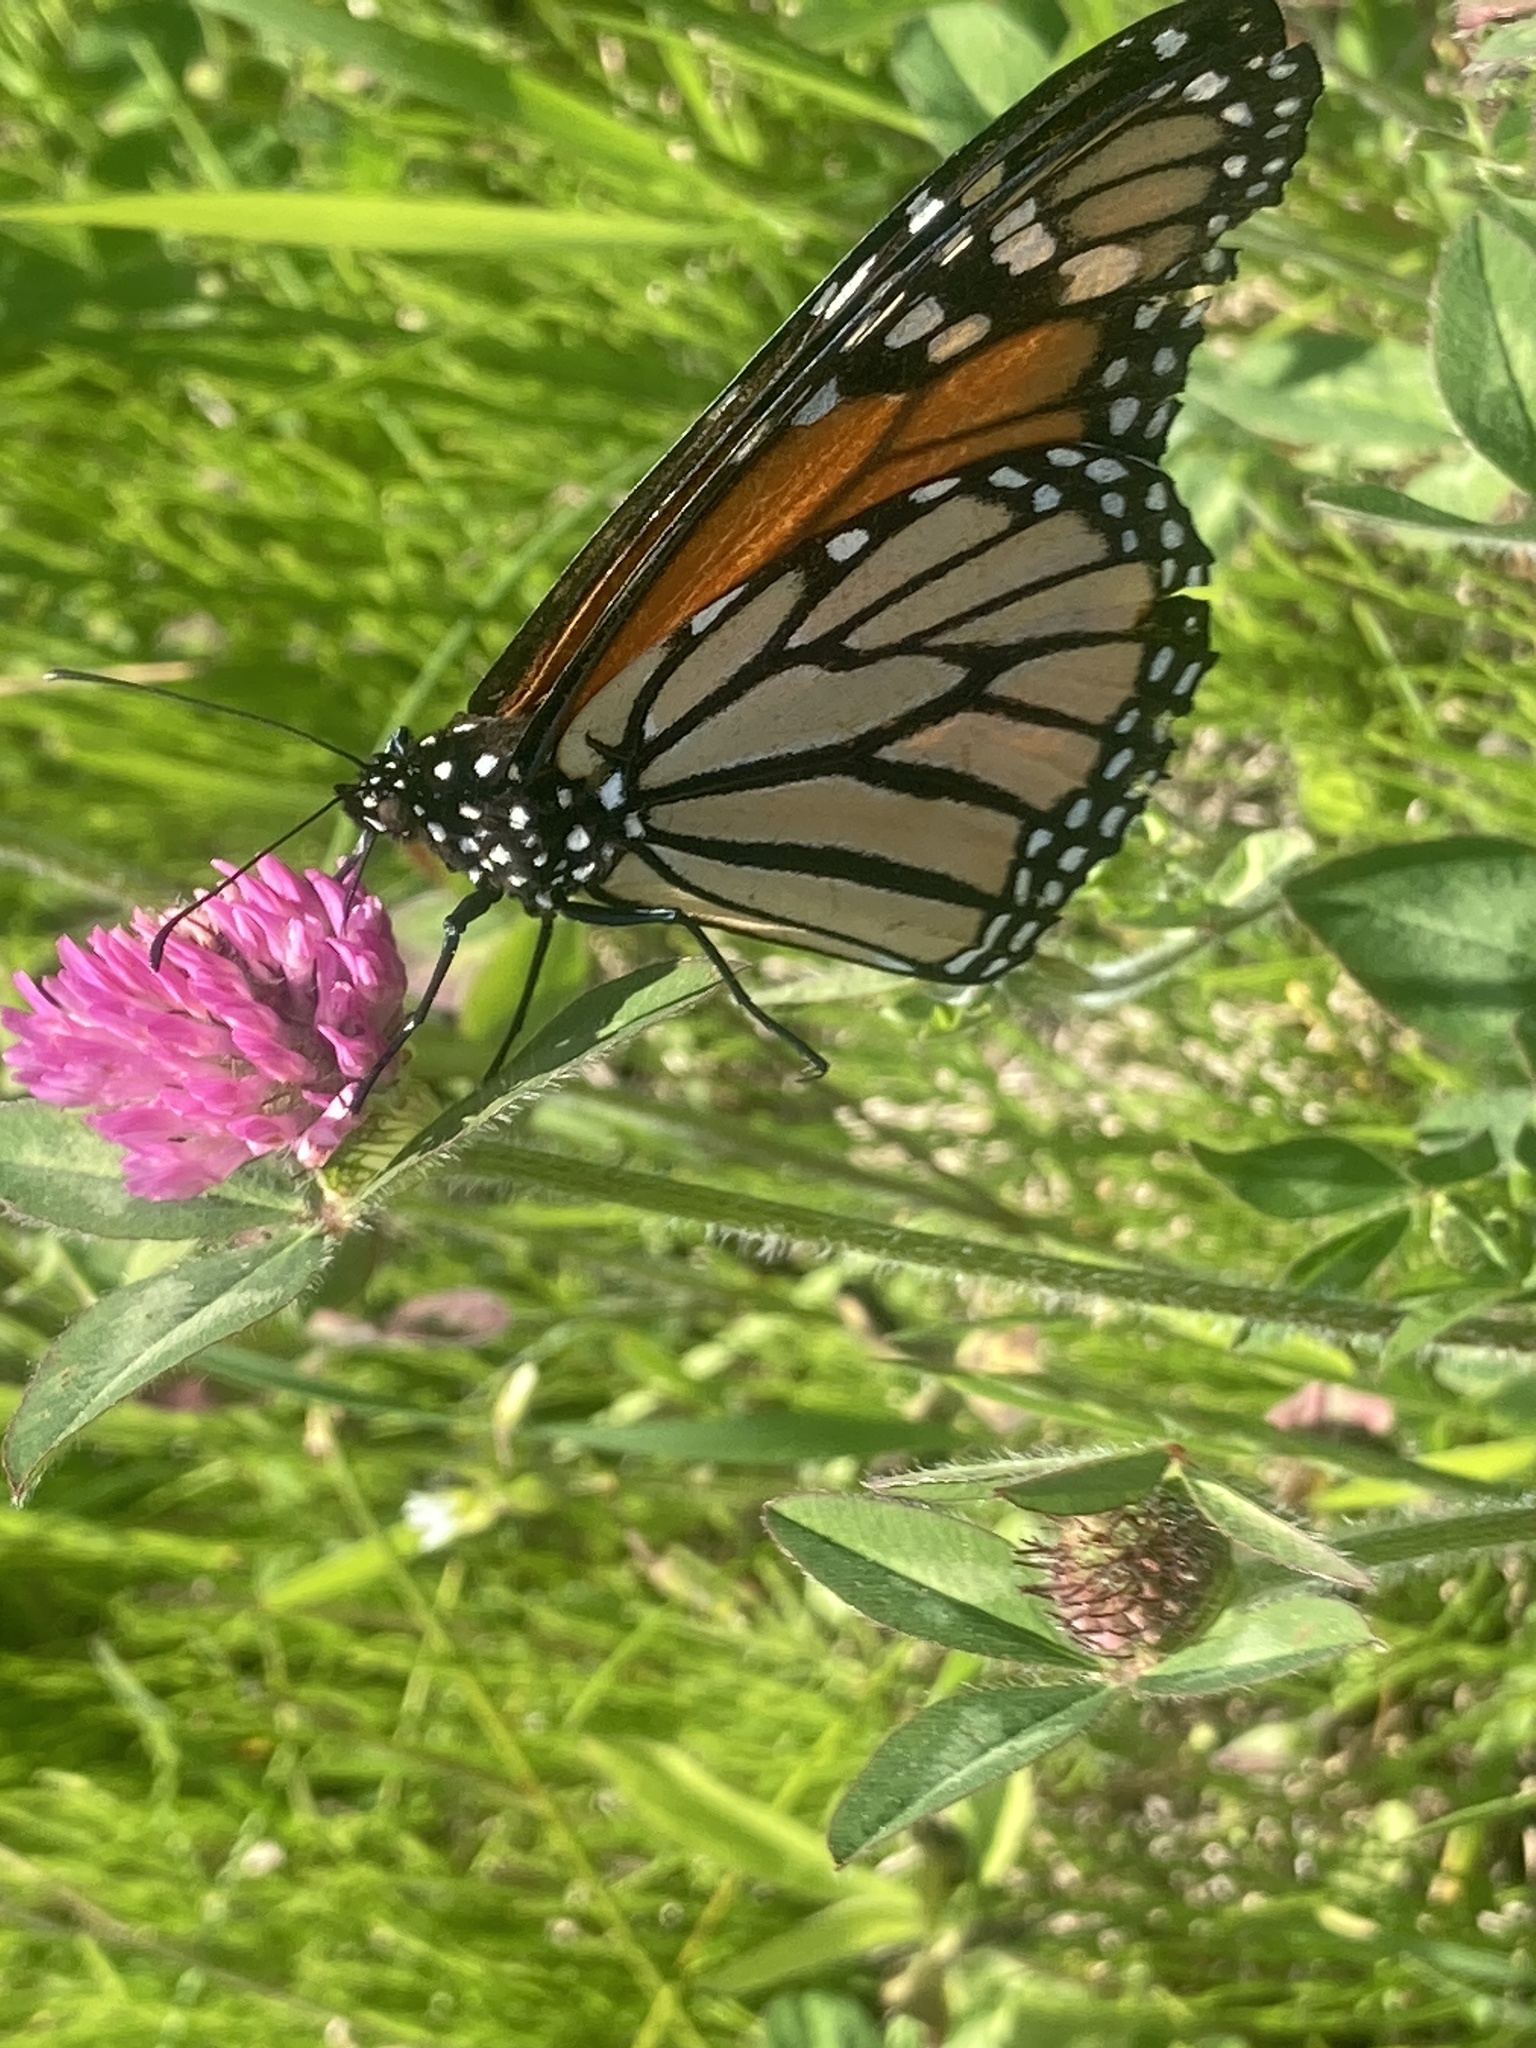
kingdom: Plantae
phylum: Tracheophyta
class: Magnoliopsida
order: Fabales
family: Fabaceae
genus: Trifolium
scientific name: Trifolium pratense
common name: Red clover
